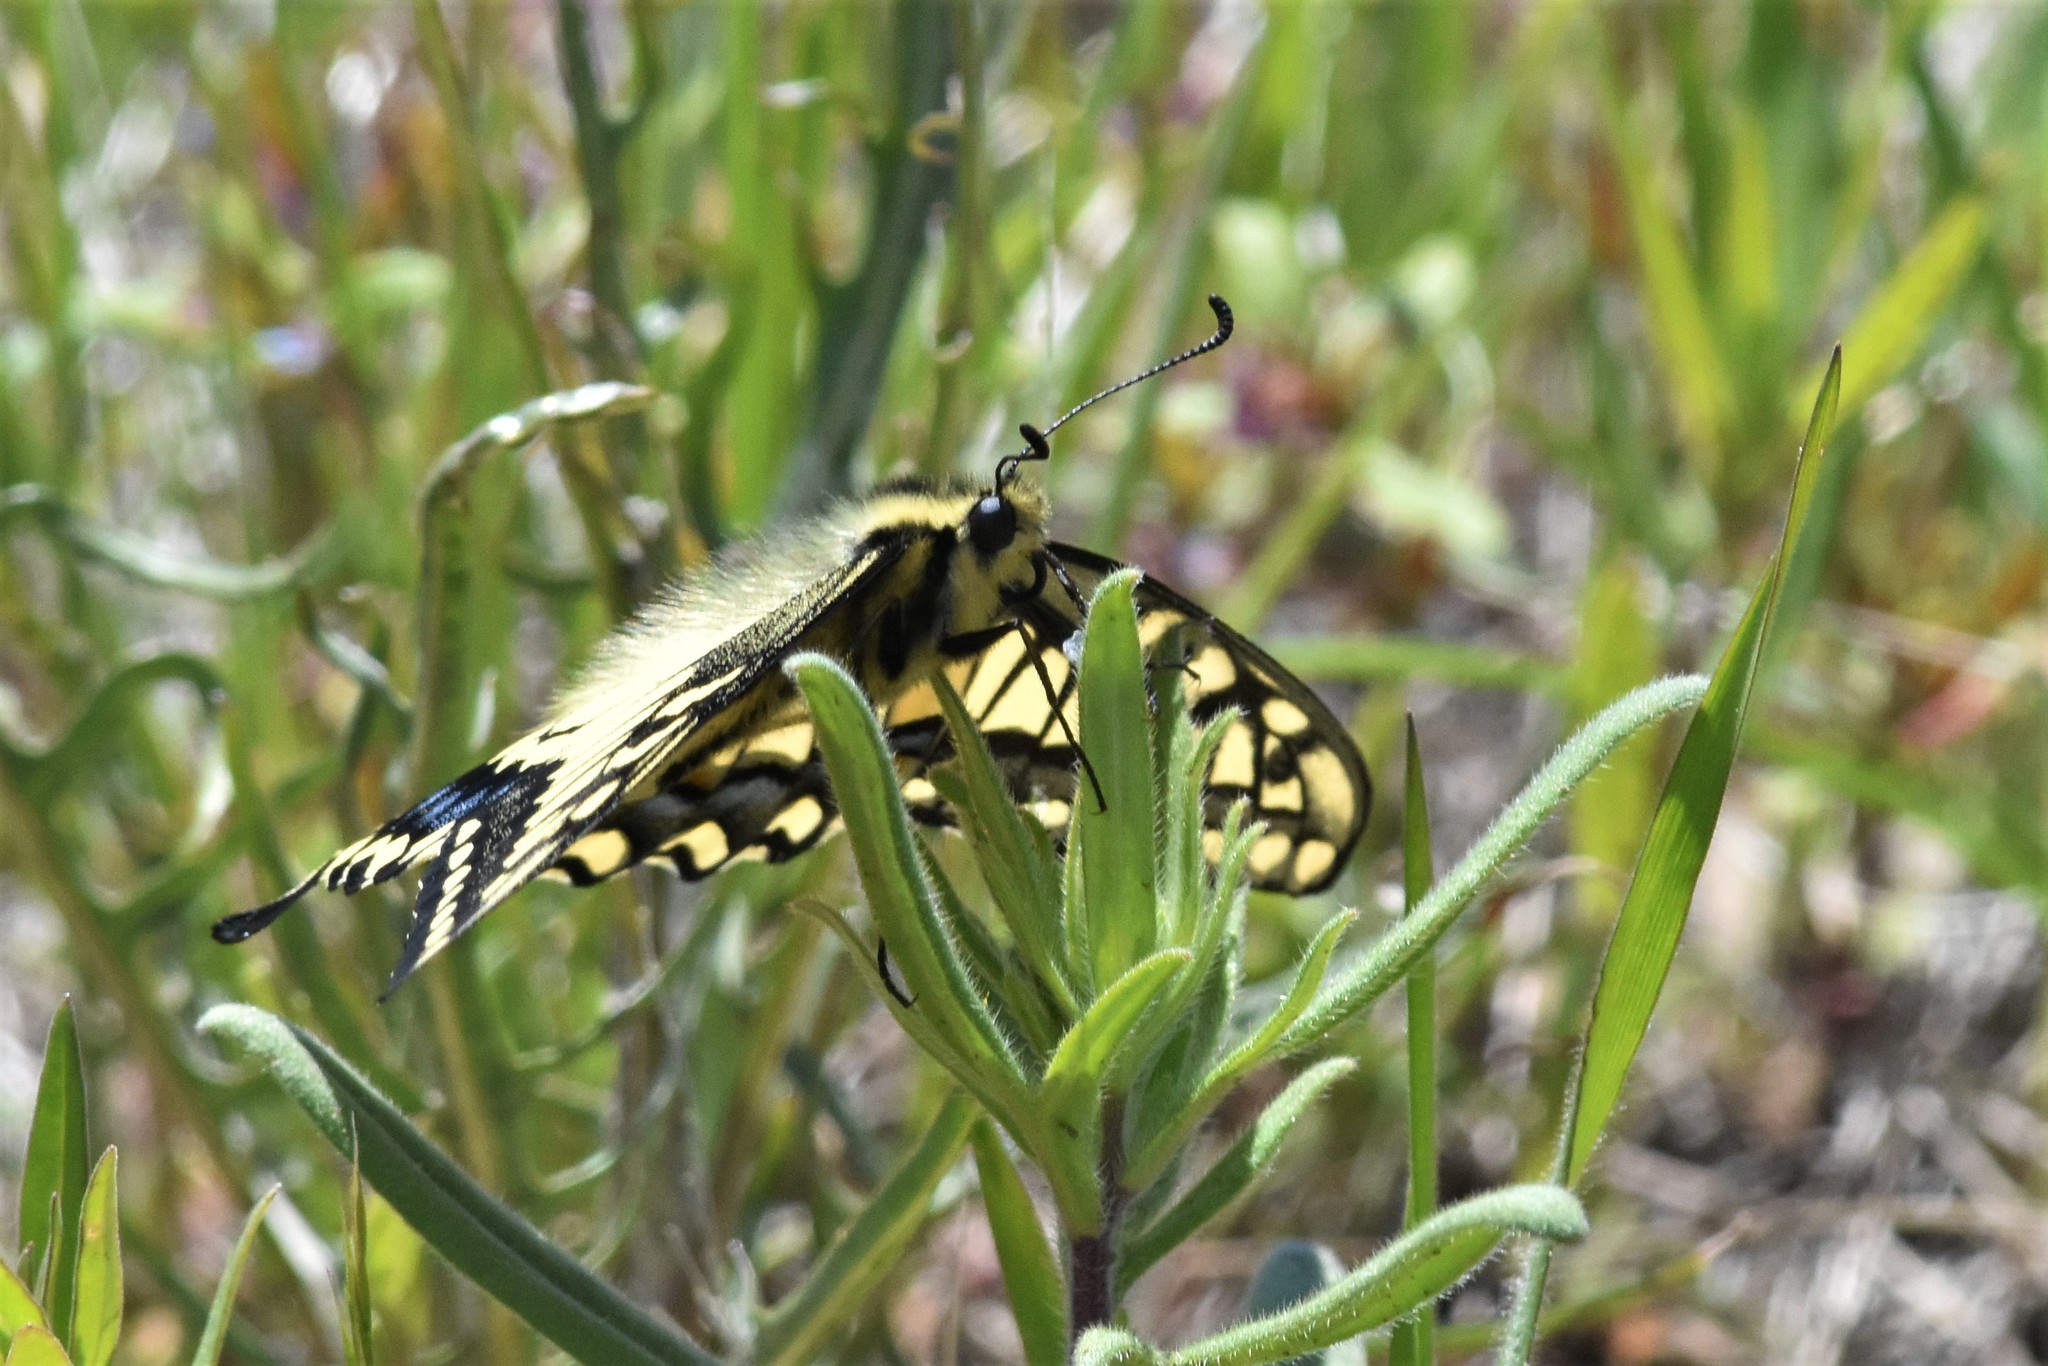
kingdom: Animalia
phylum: Arthropoda
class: Insecta
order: Lepidoptera
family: Papilionidae
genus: Papilio
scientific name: Papilio zelicaon
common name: Anise swallowtail
